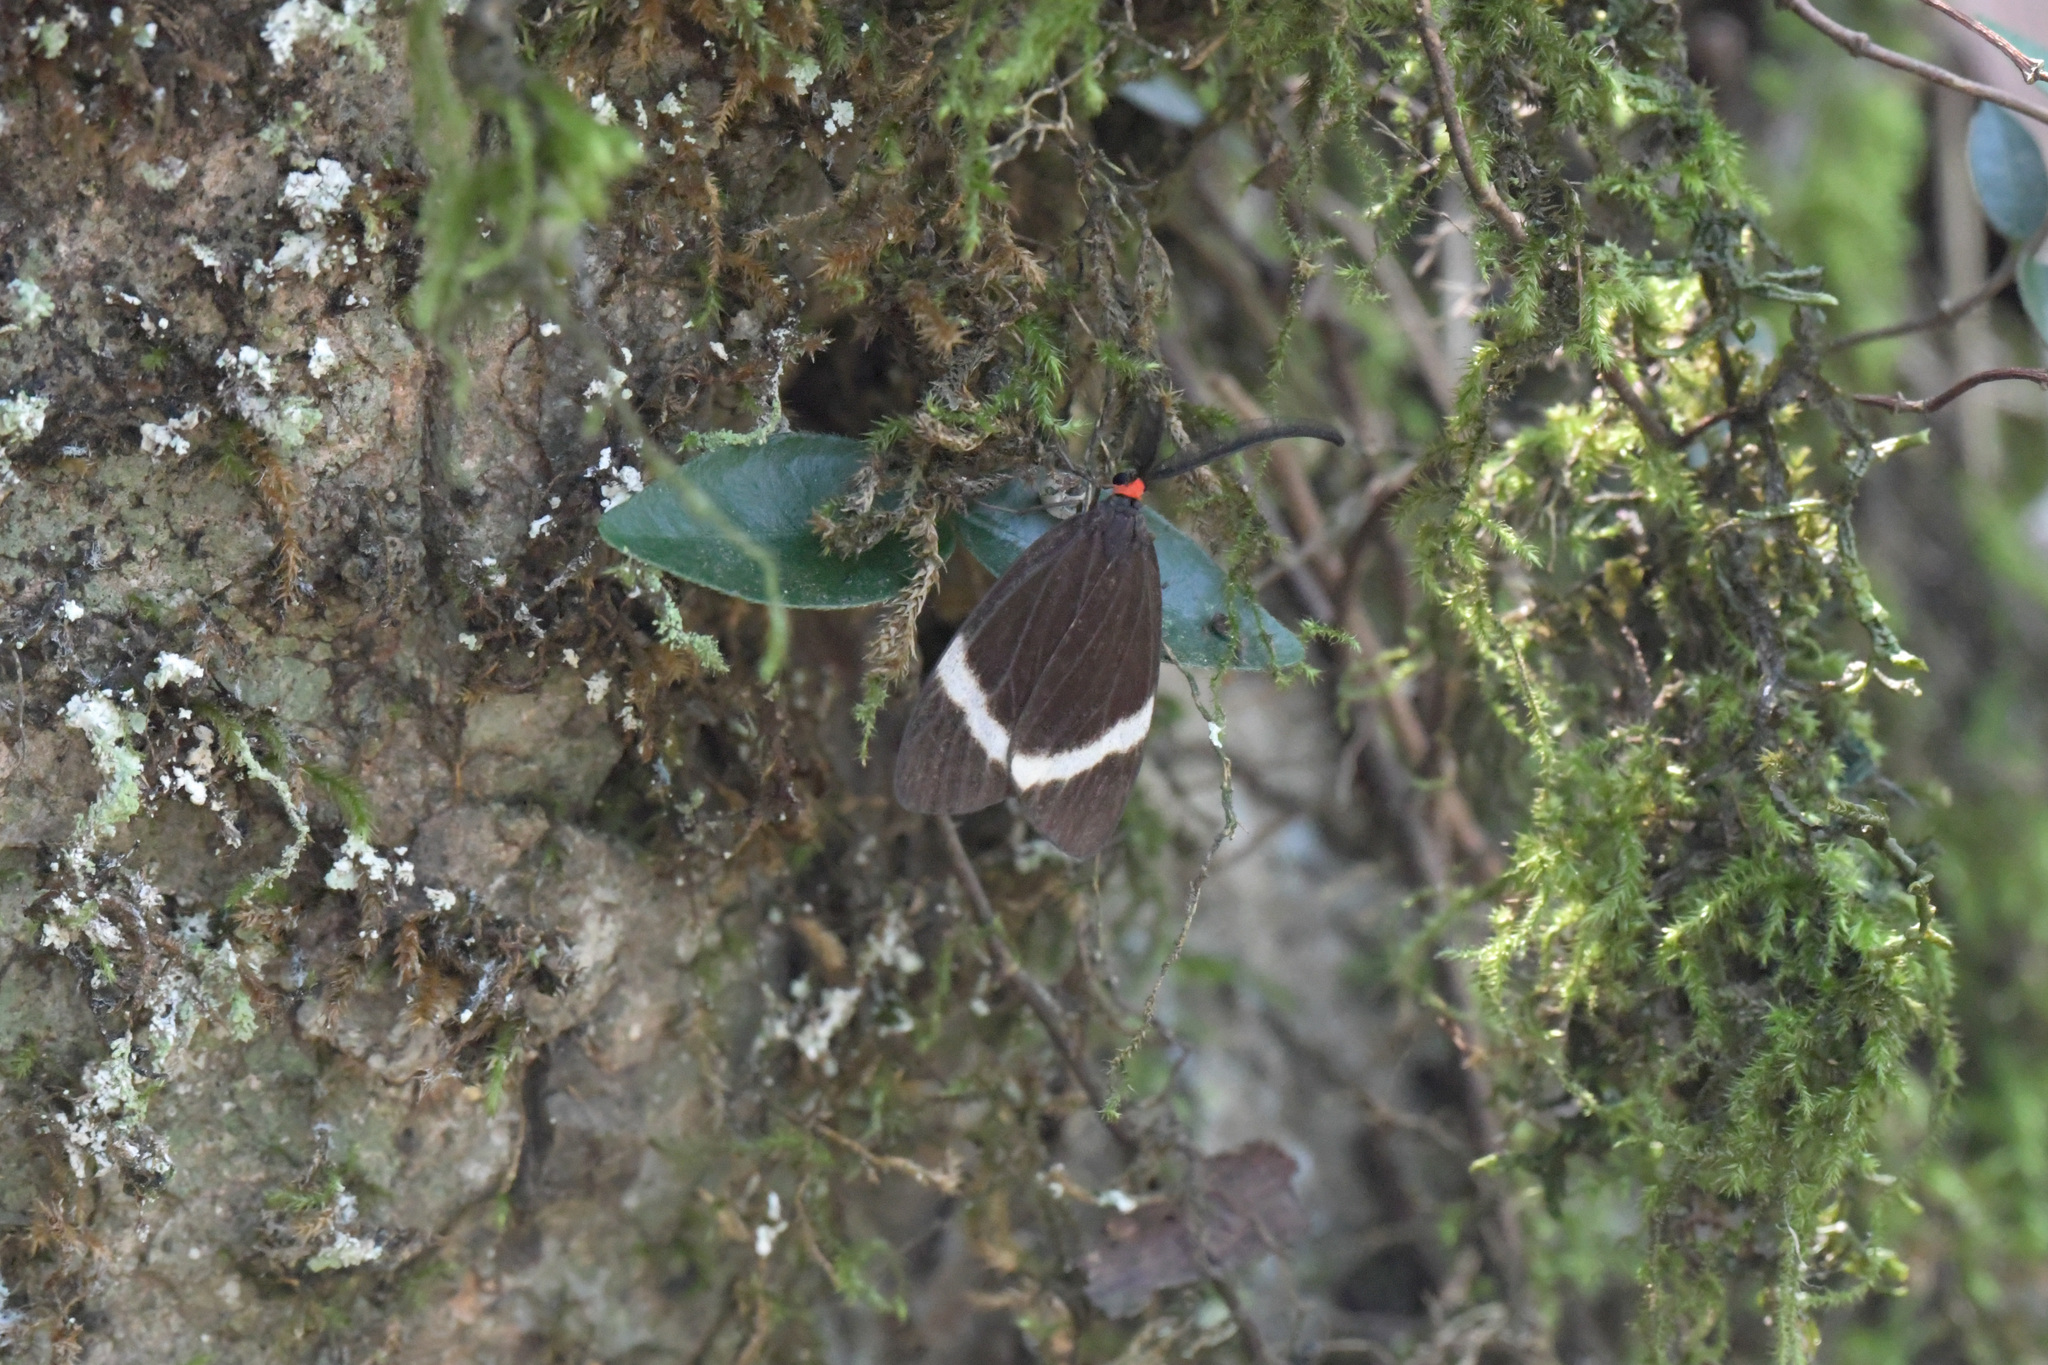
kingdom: Animalia
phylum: Arthropoda
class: Insecta
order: Lepidoptera
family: Zygaenidae
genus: Pidorus
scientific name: Pidorus glaucopis
